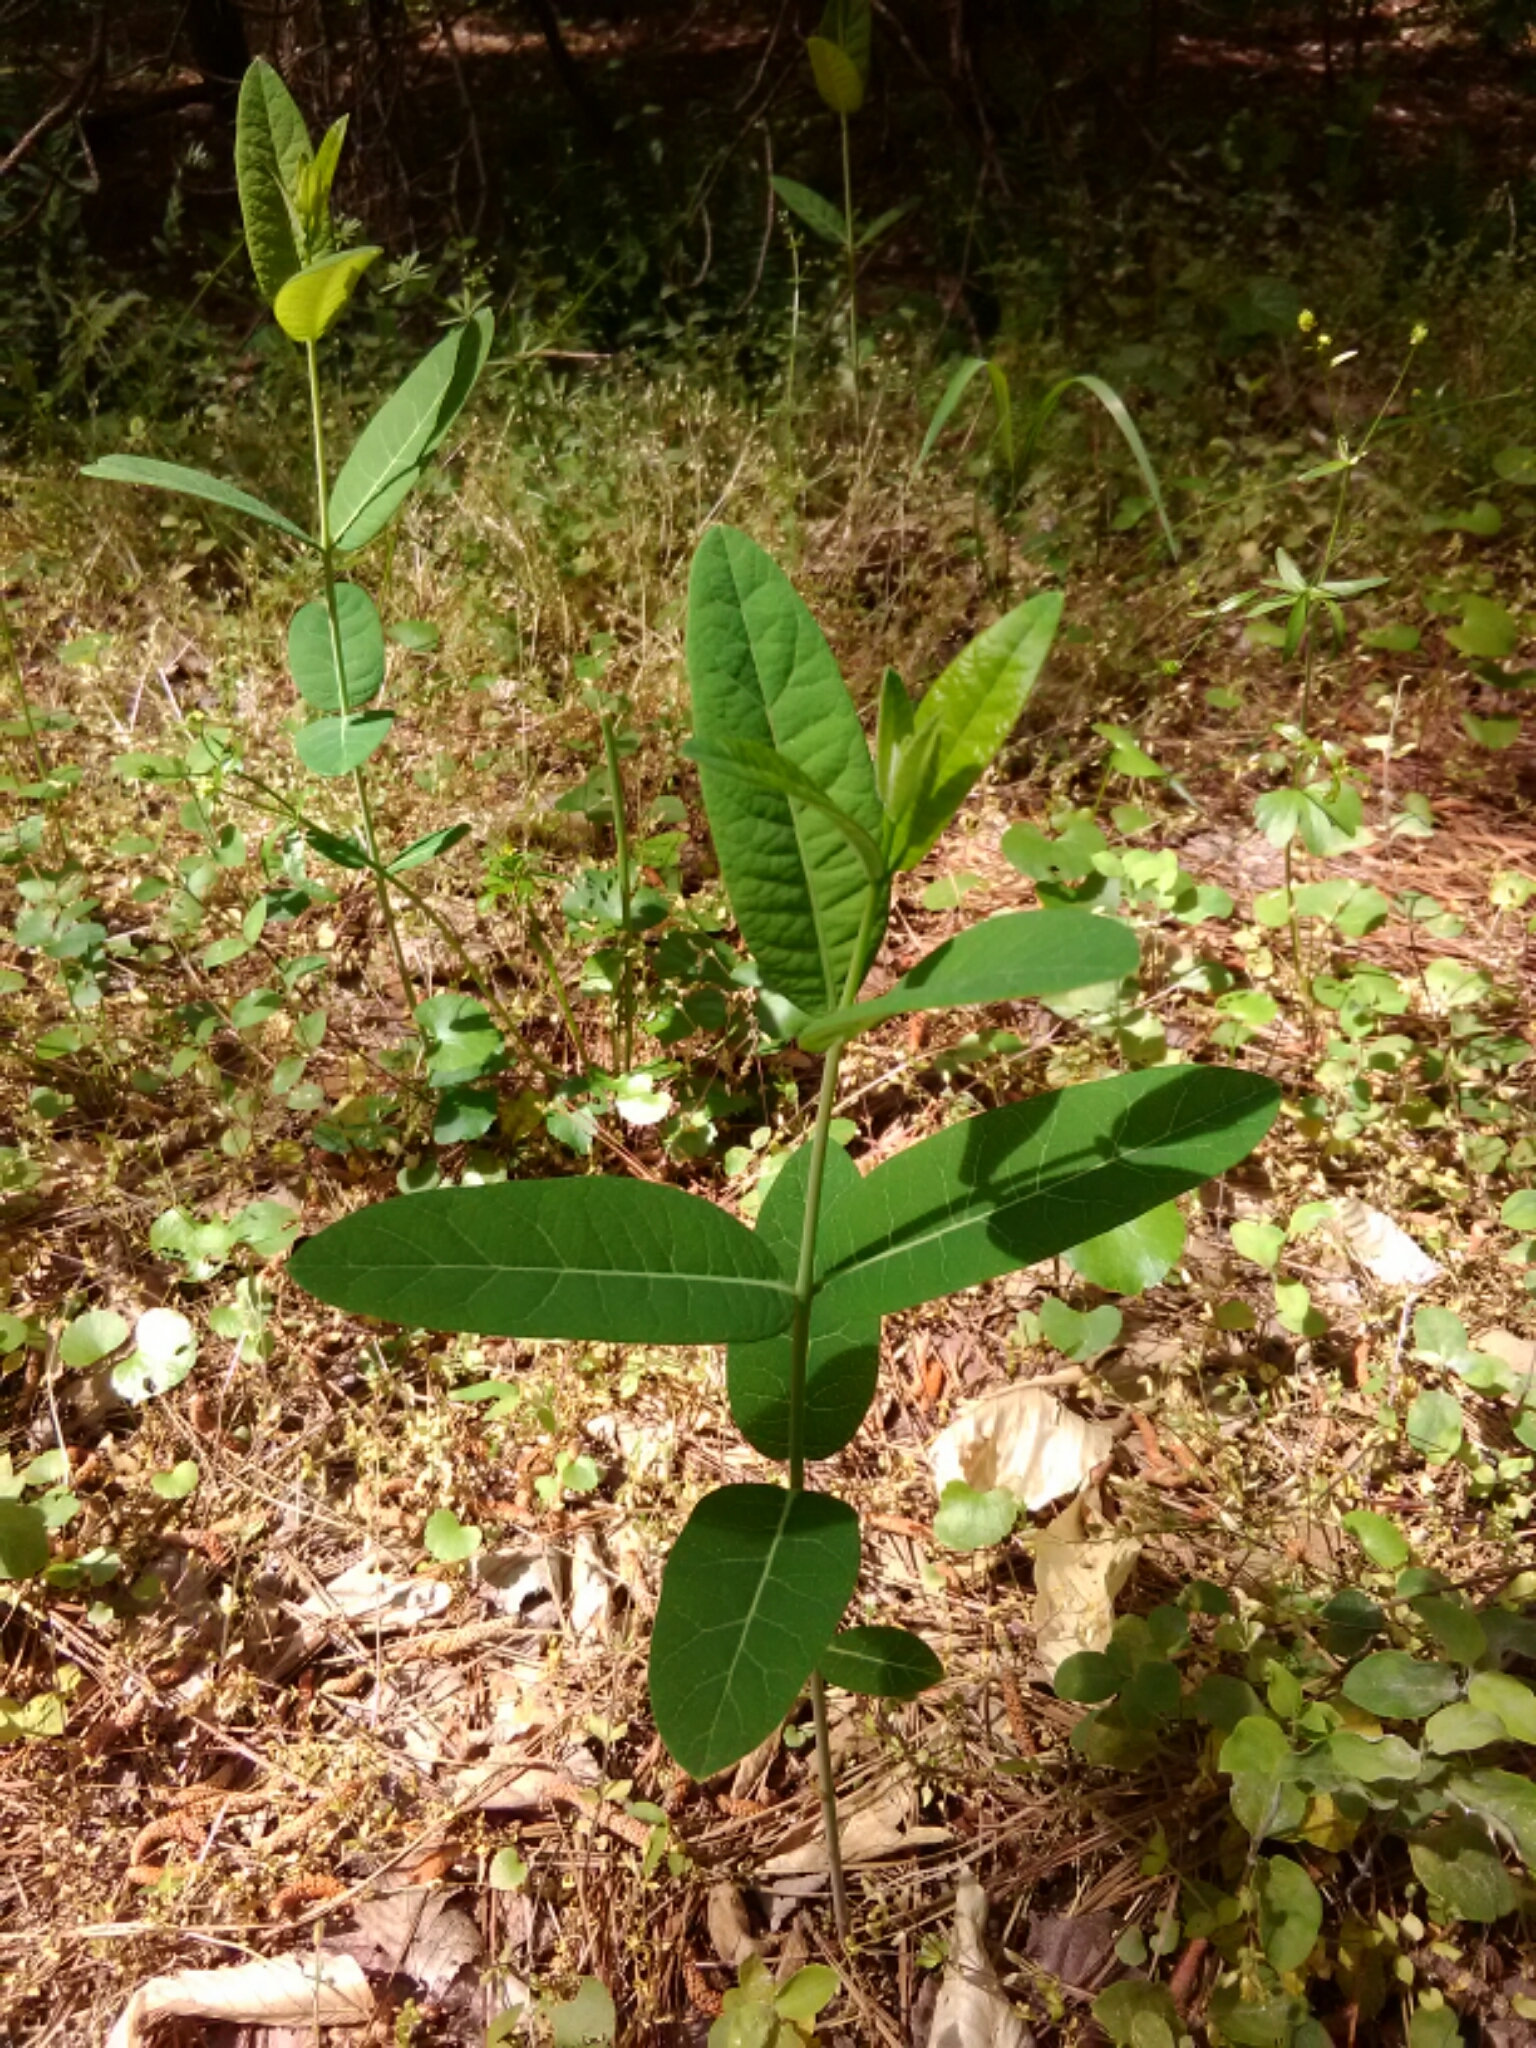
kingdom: Plantae
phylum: Tracheophyta
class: Magnoliopsida
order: Gentianales
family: Apocynaceae
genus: Apocynum
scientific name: Apocynum cannabinum
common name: Hemp dogbane
